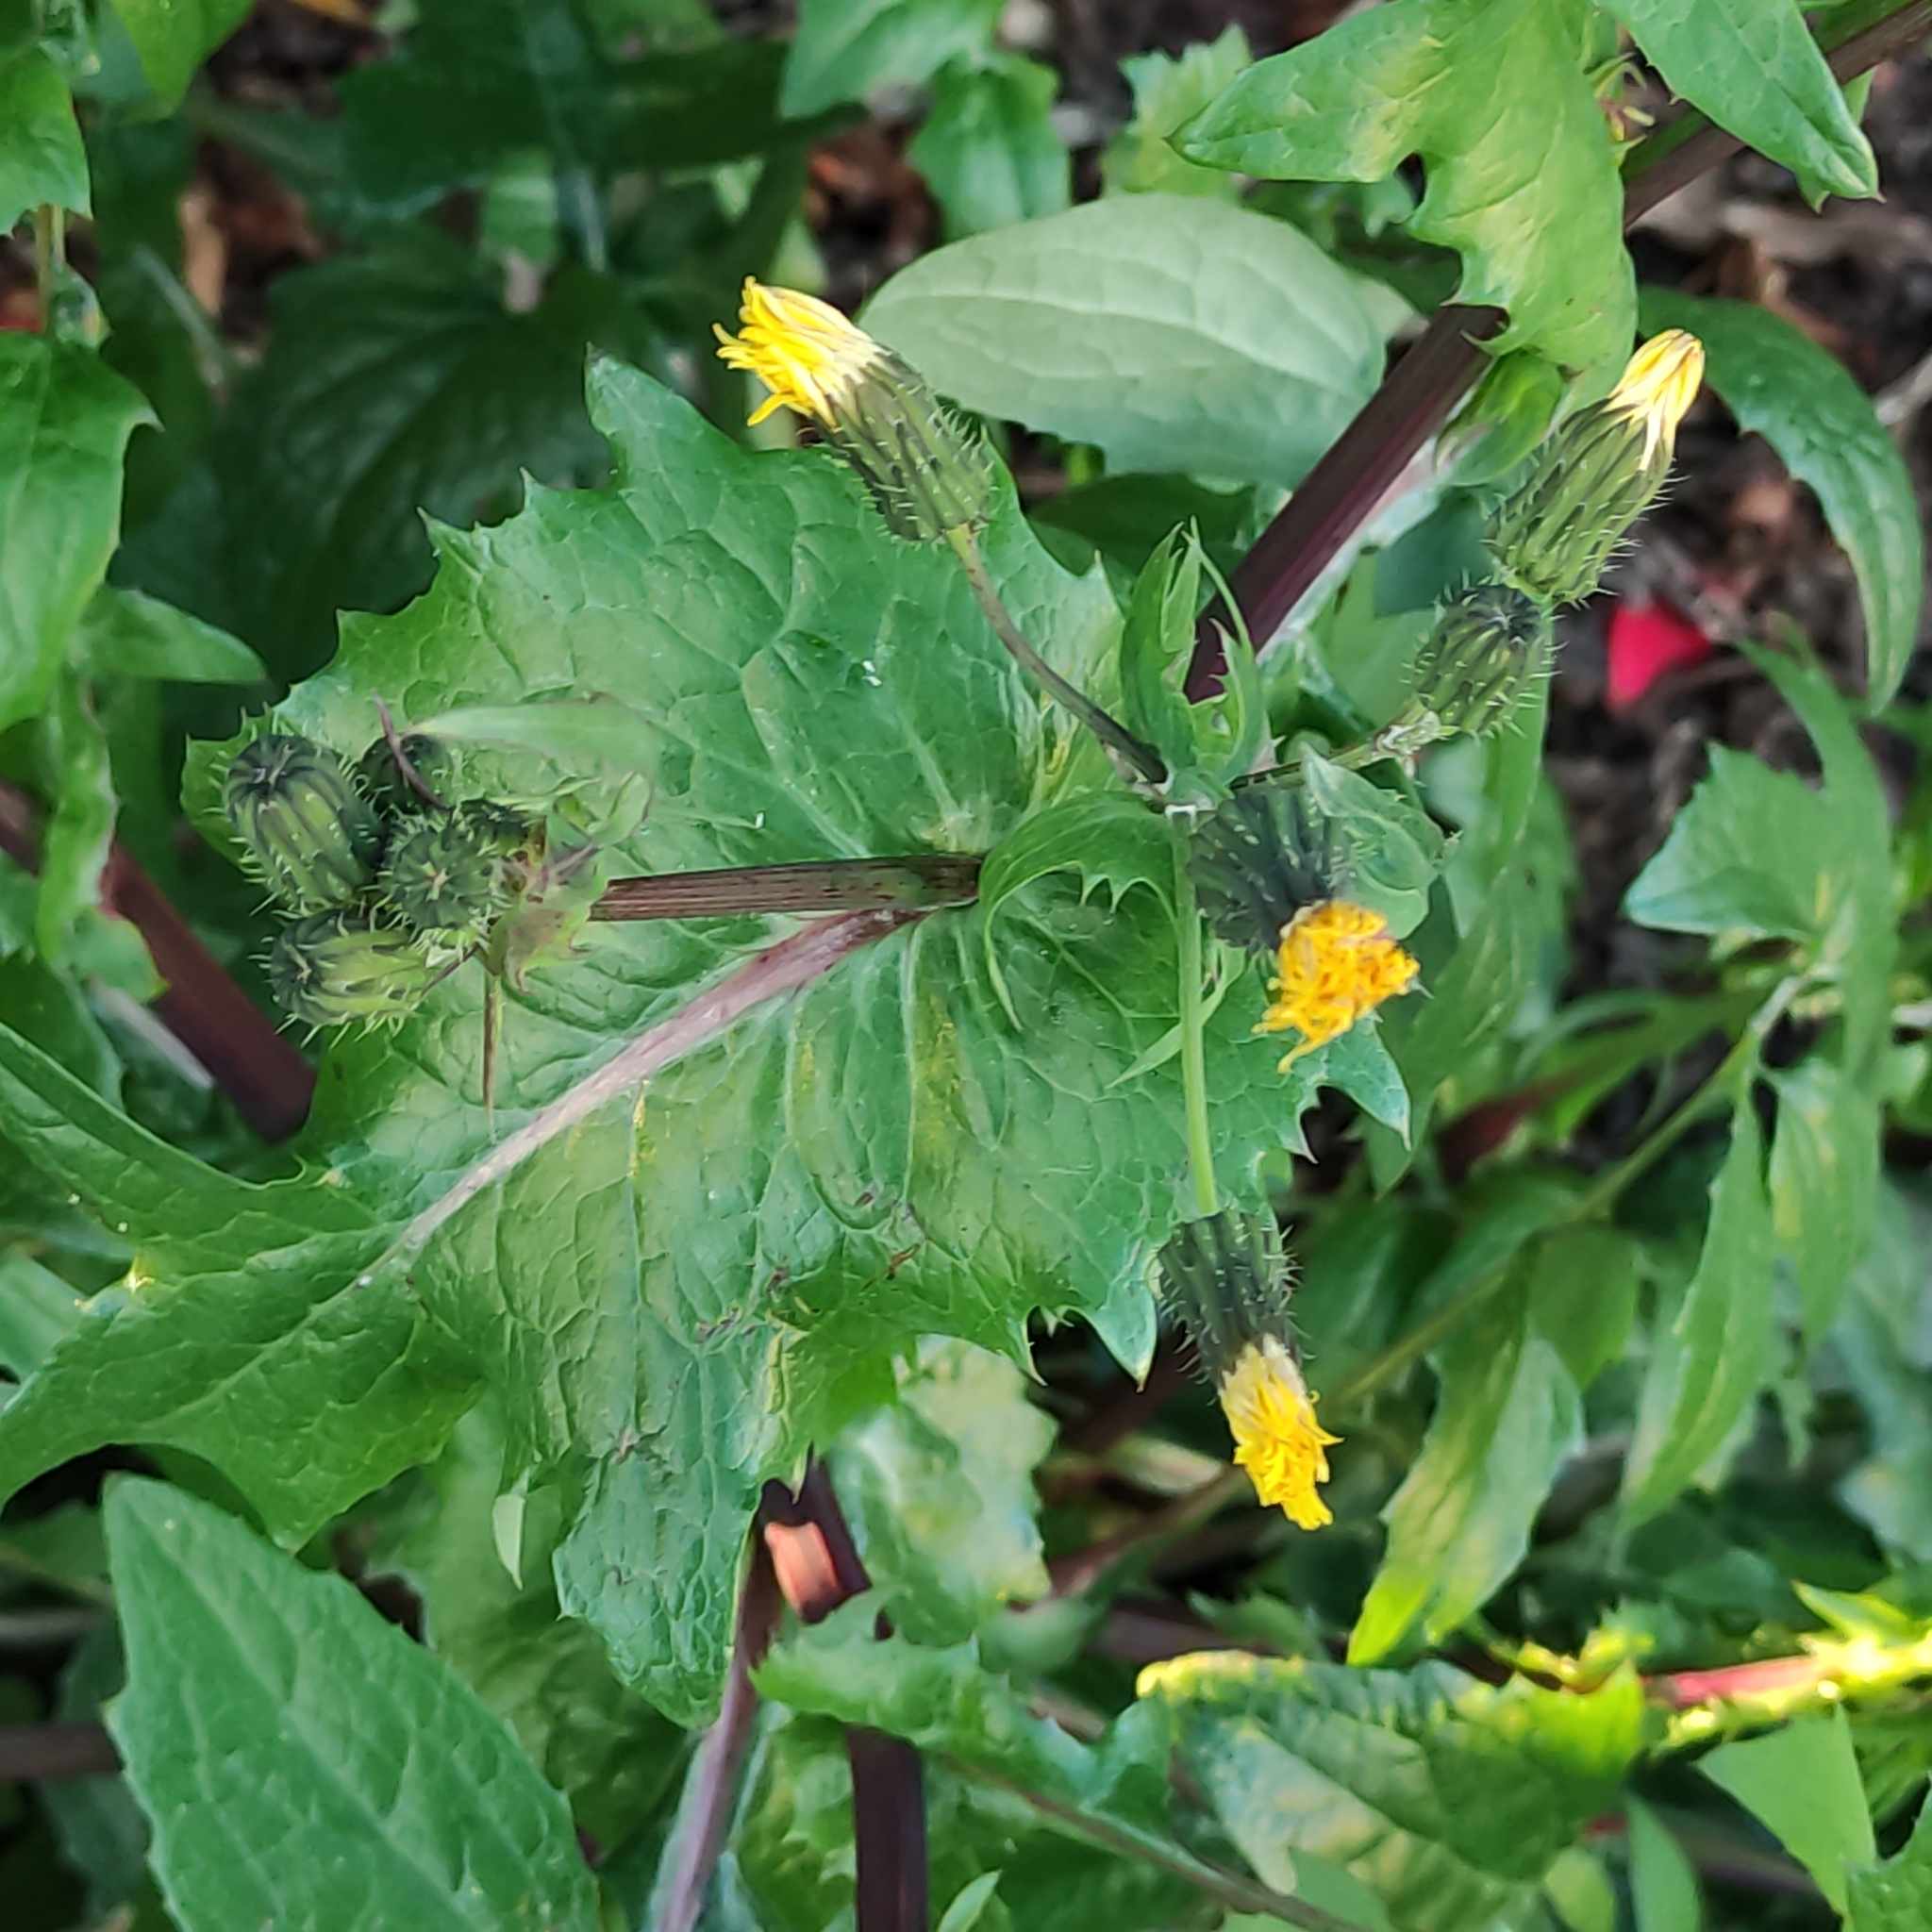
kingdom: Plantae
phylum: Tracheophyta
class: Magnoliopsida
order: Asterales
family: Asteraceae
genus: Sonchus
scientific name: Sonchus oleraceus
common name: Common sowthistle
